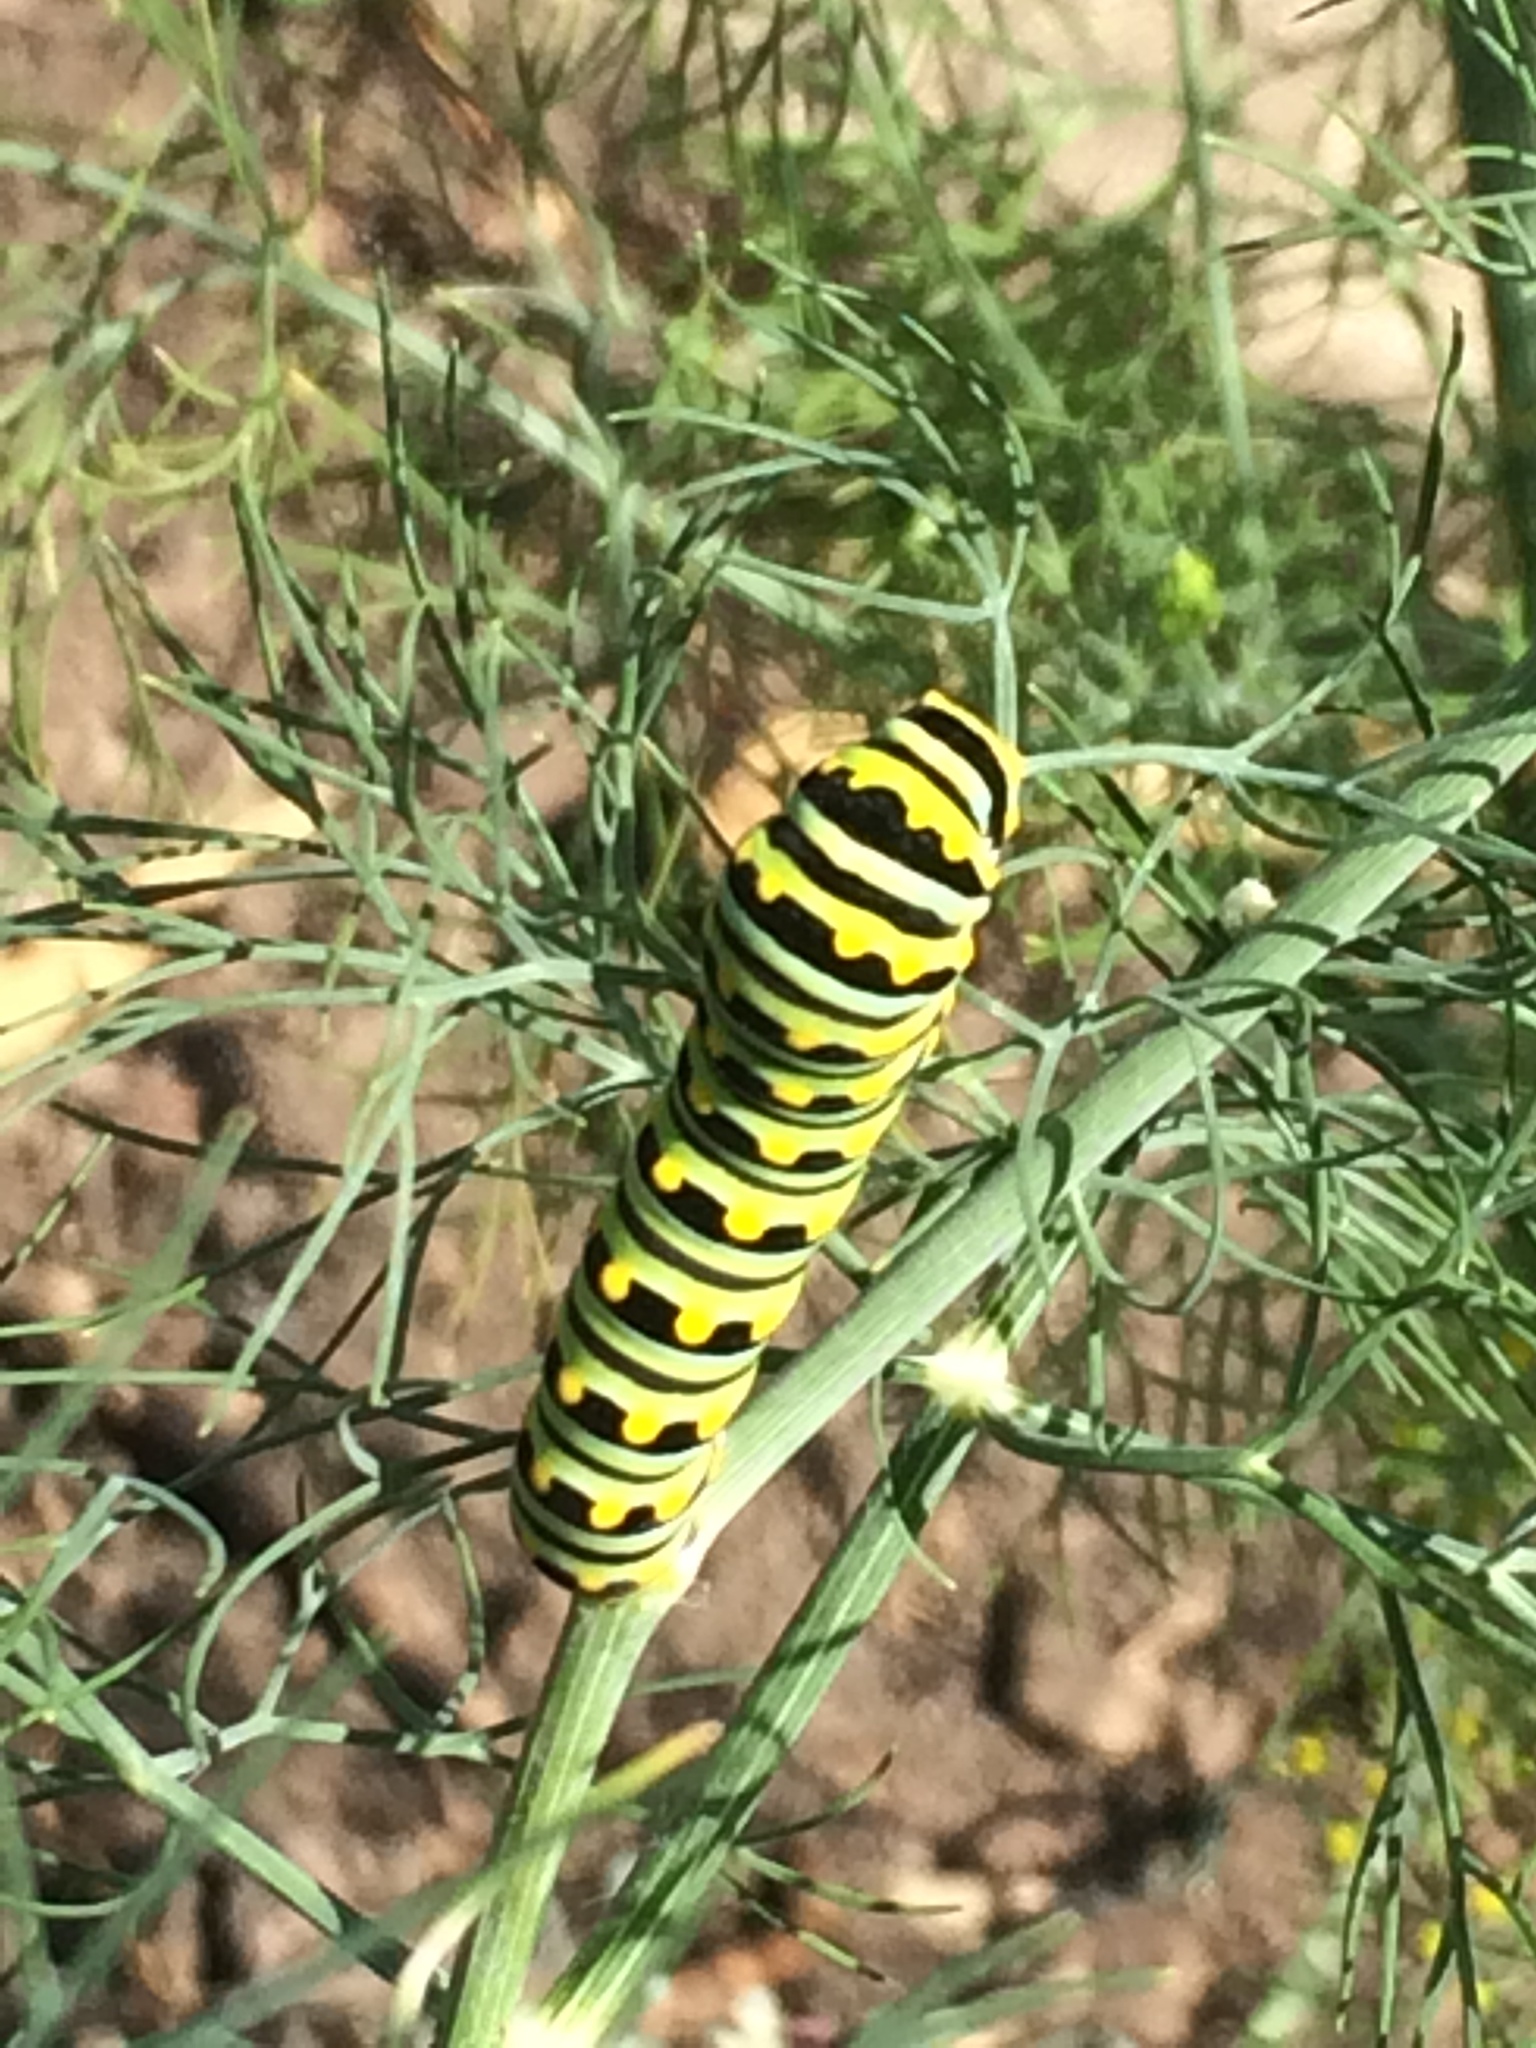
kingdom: Animalia
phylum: Arthropoda
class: Insecta
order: Lepidoptera
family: Papilionidae
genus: Papilio
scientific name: Papilio polyxenes
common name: Black swallowtail
